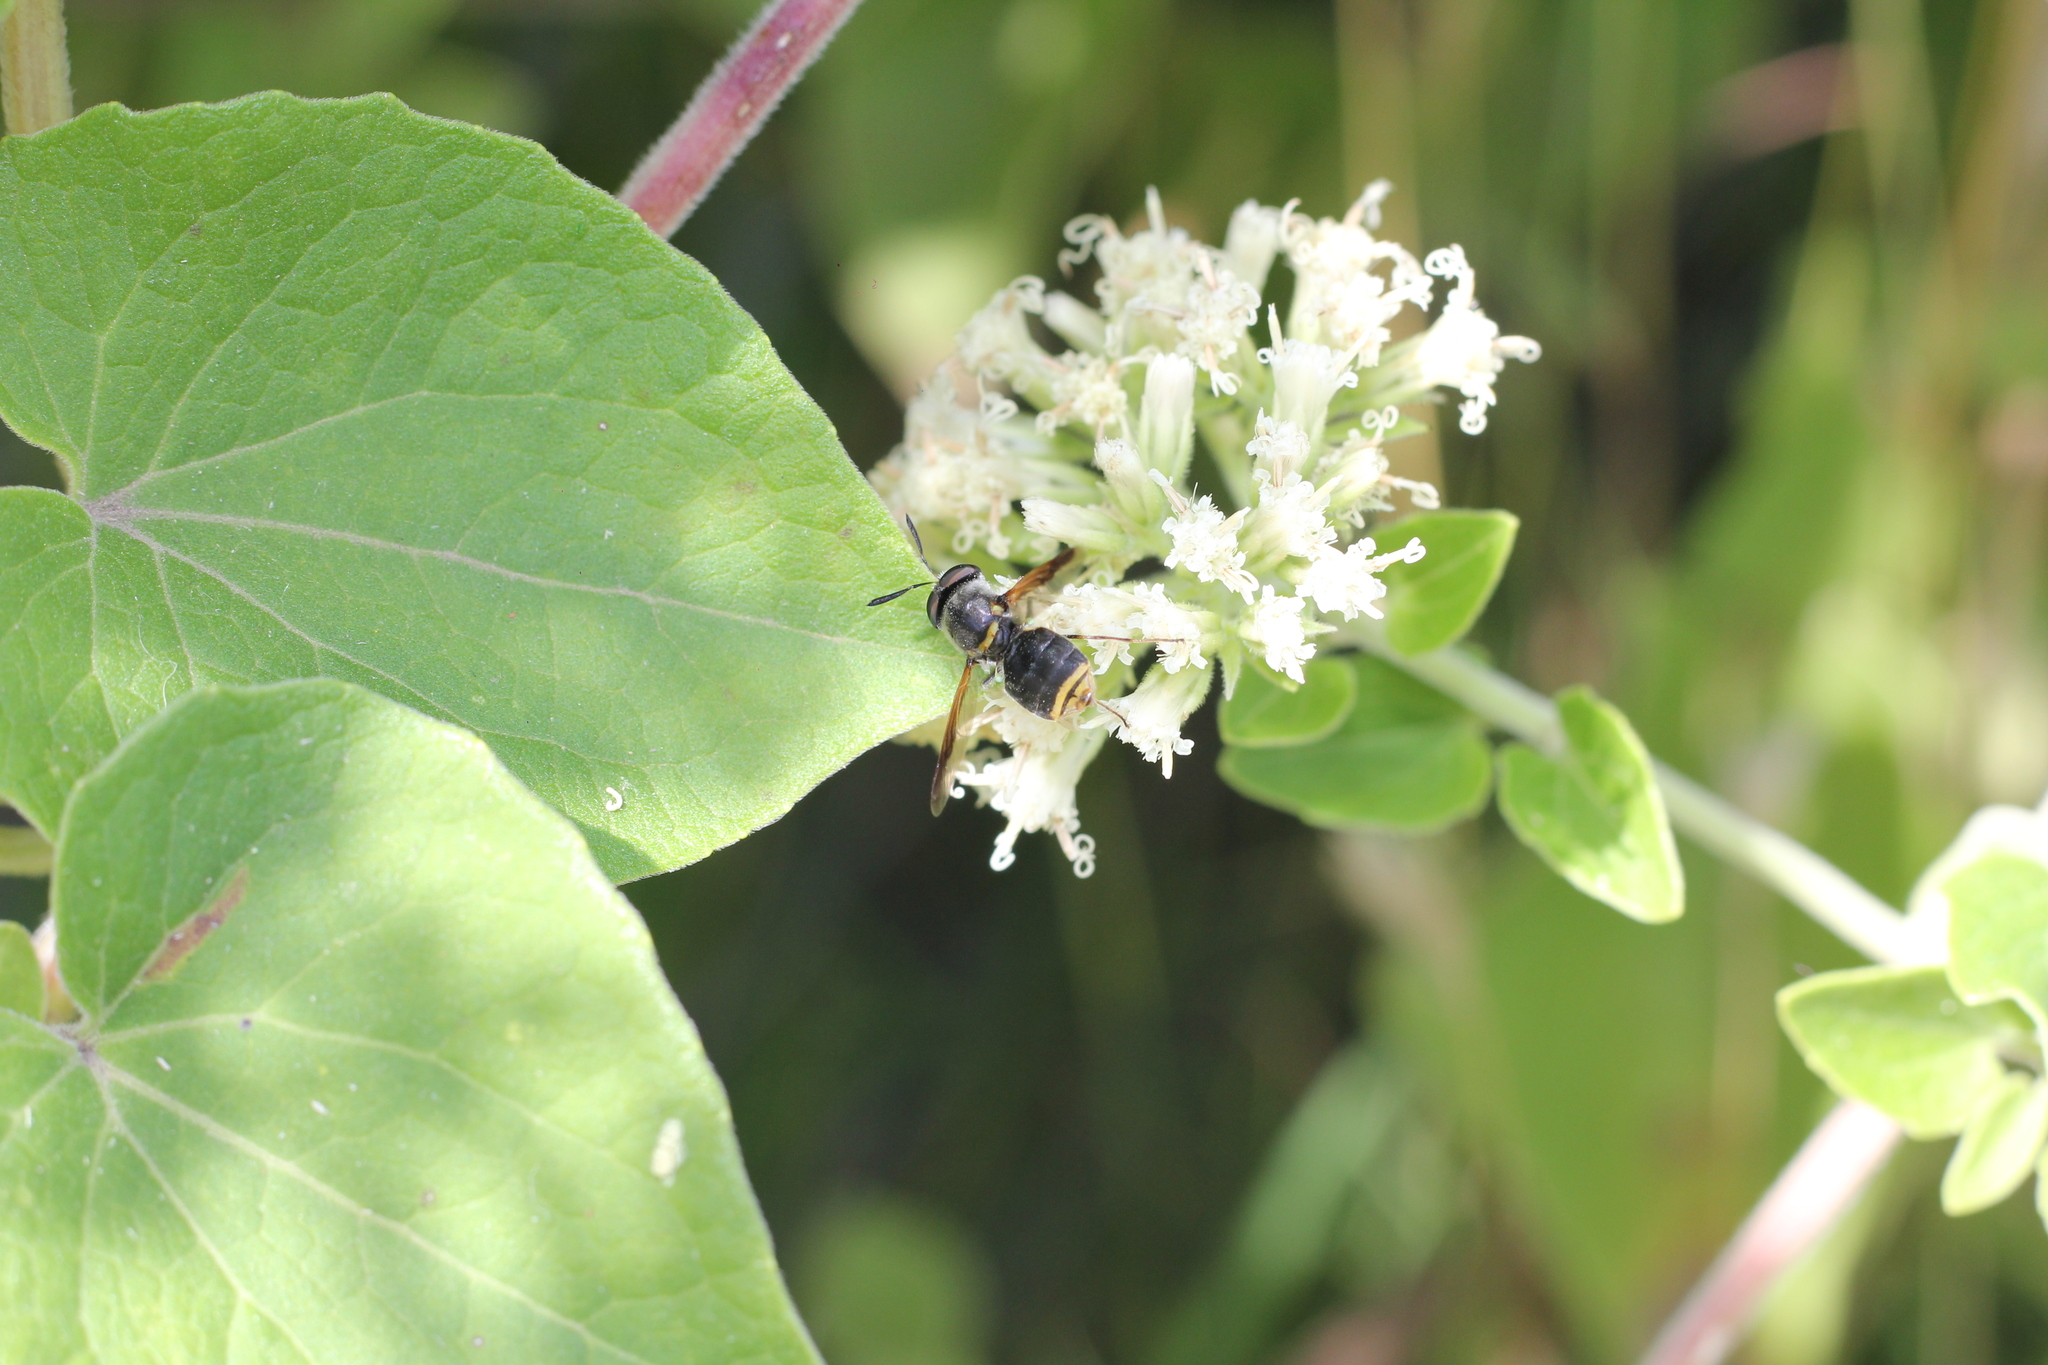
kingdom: Animalia
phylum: Arthropoda
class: Insecta
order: Diptera
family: Stratiomyidae
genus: Hoplitimyia
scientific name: Hoplitimyia
